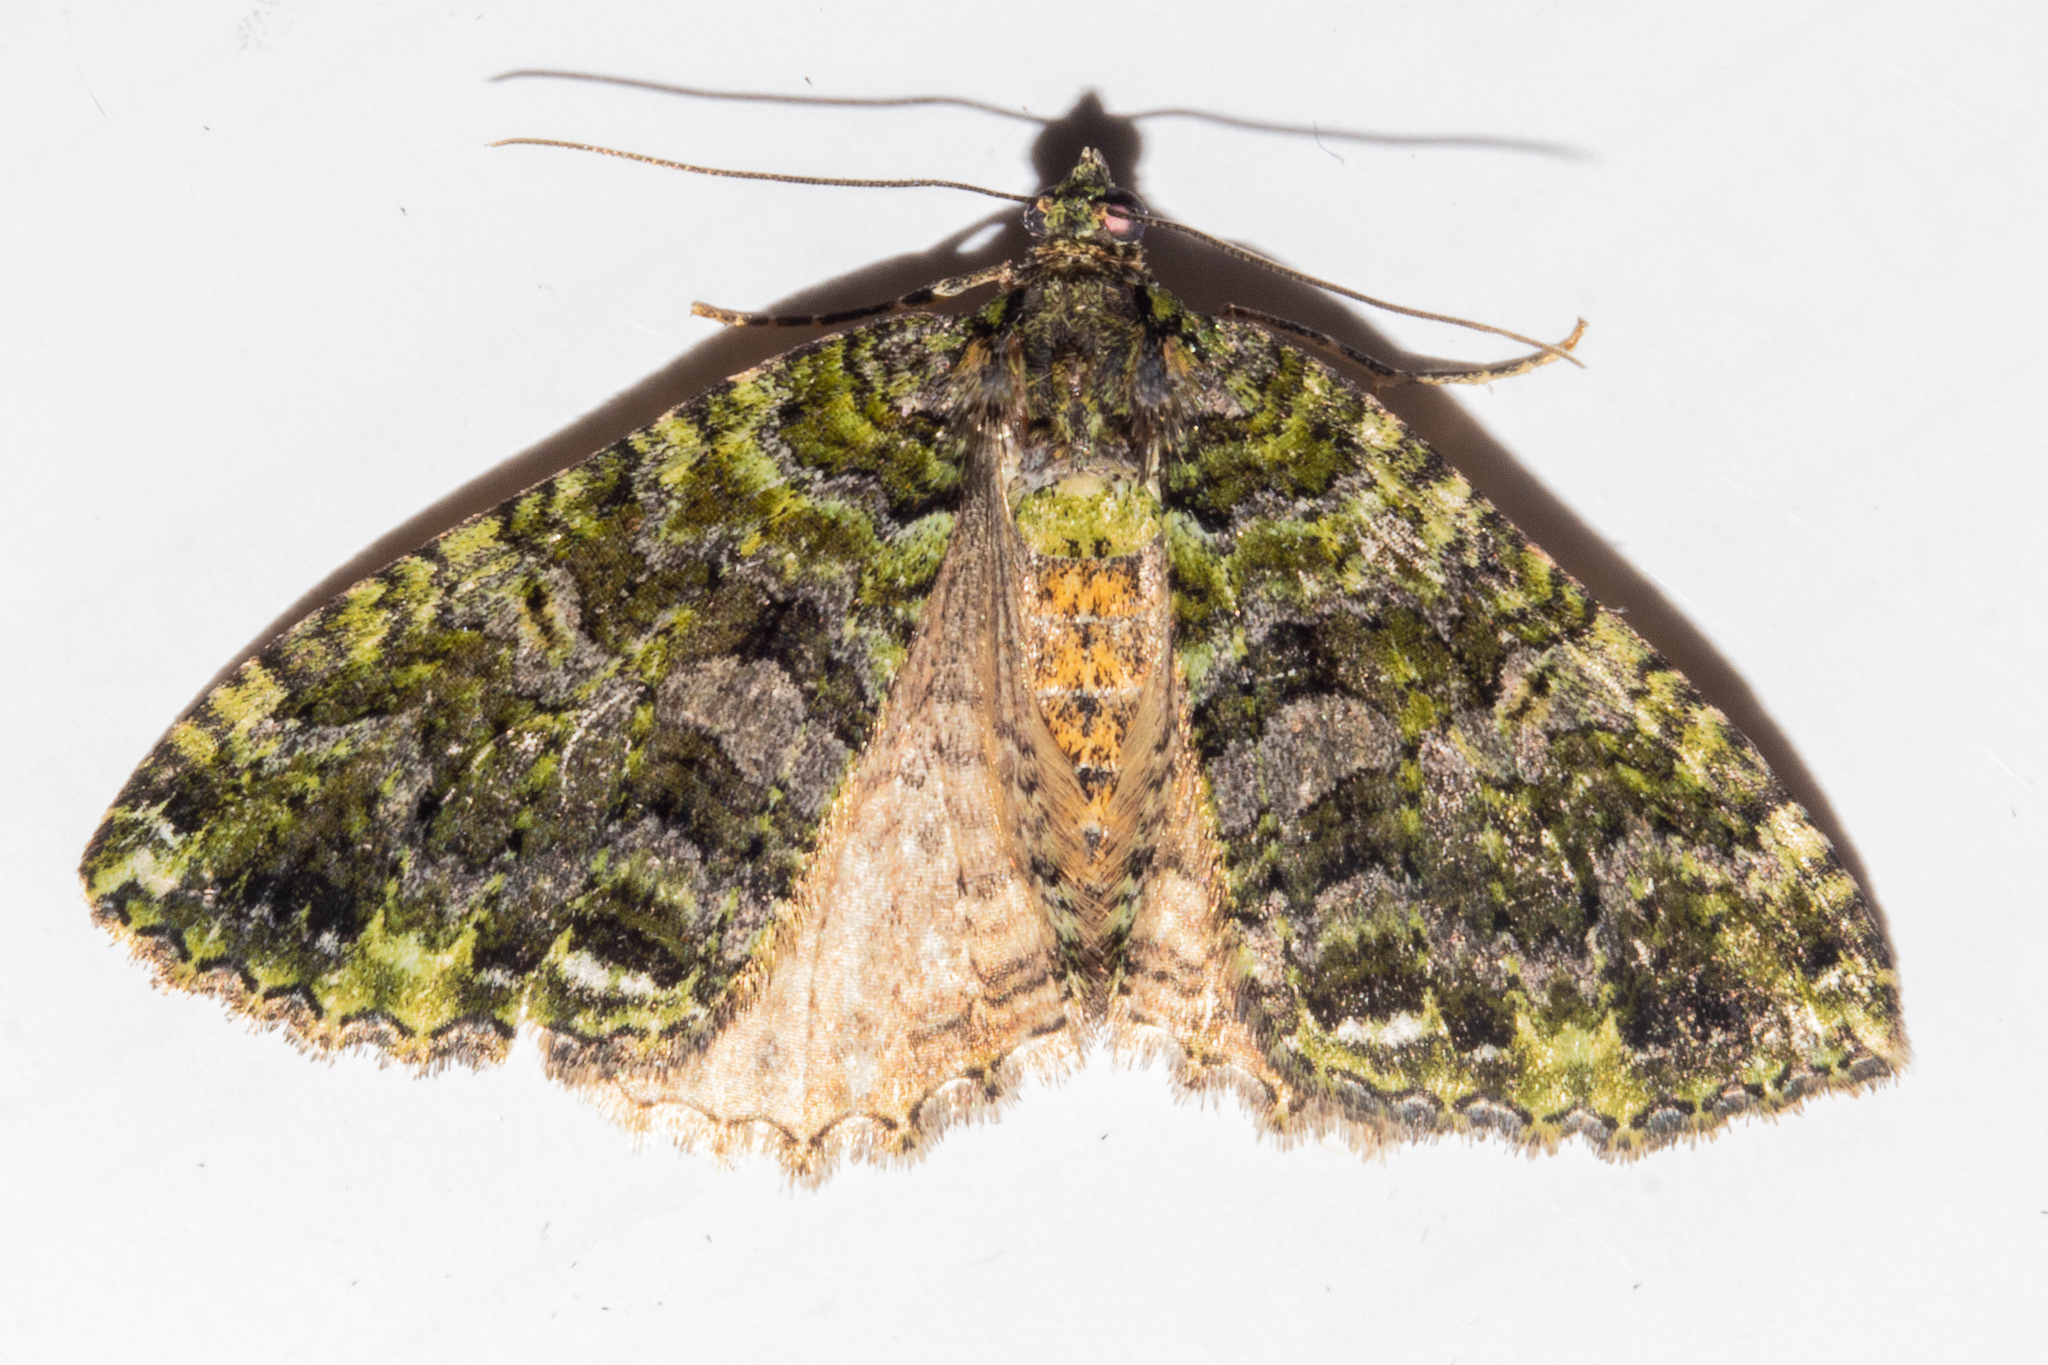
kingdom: Animalia
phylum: Arthropoda
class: Insecta
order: Lepidoptera
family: Geometridae
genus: Austrocidaria
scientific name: Austrocidaria similata
